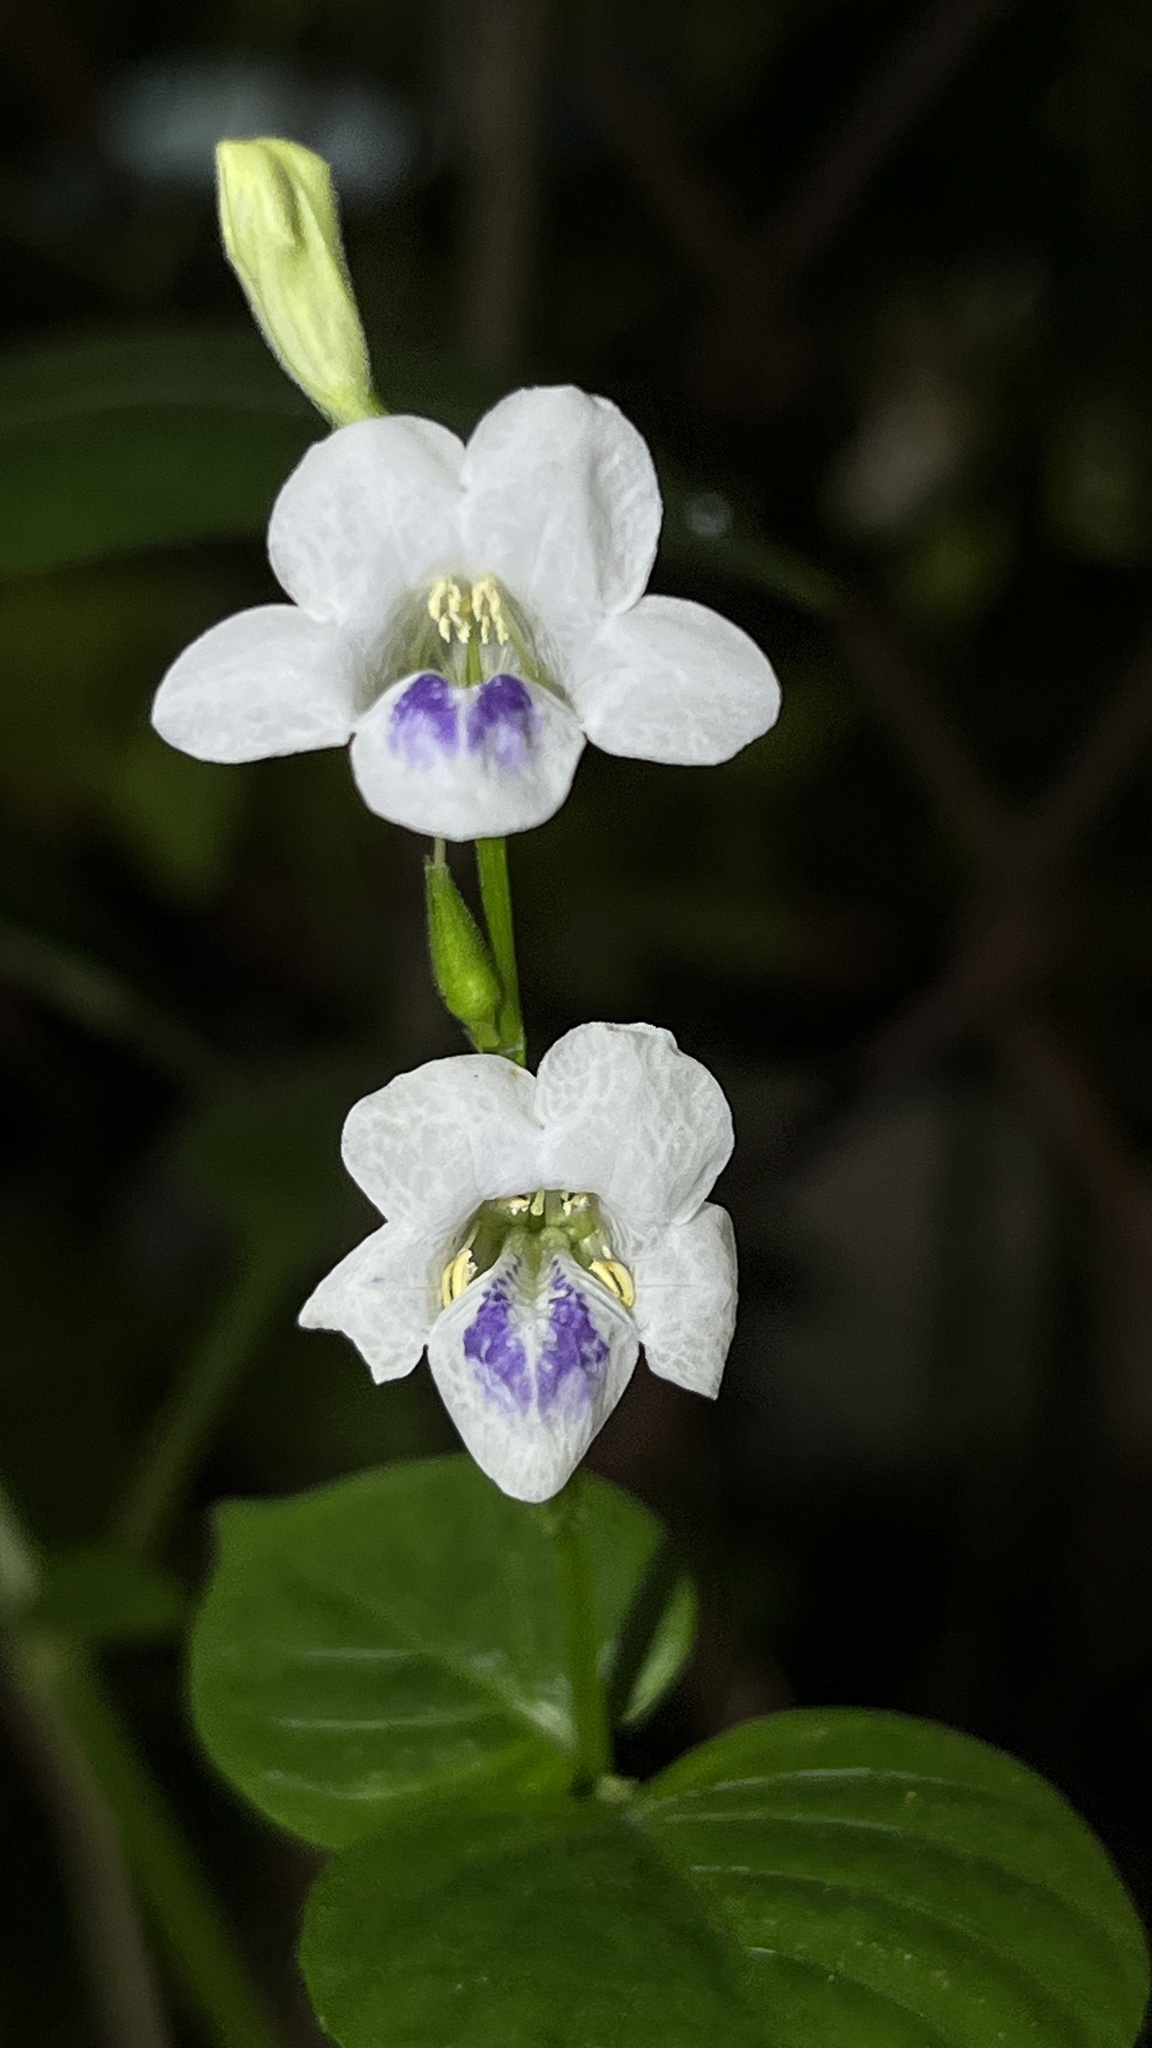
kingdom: Plantae
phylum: Tracheophyta
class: Magnoliopsida
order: Lamiales
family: Acanthaceae
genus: Asystasia
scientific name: Asystasia intrusa
